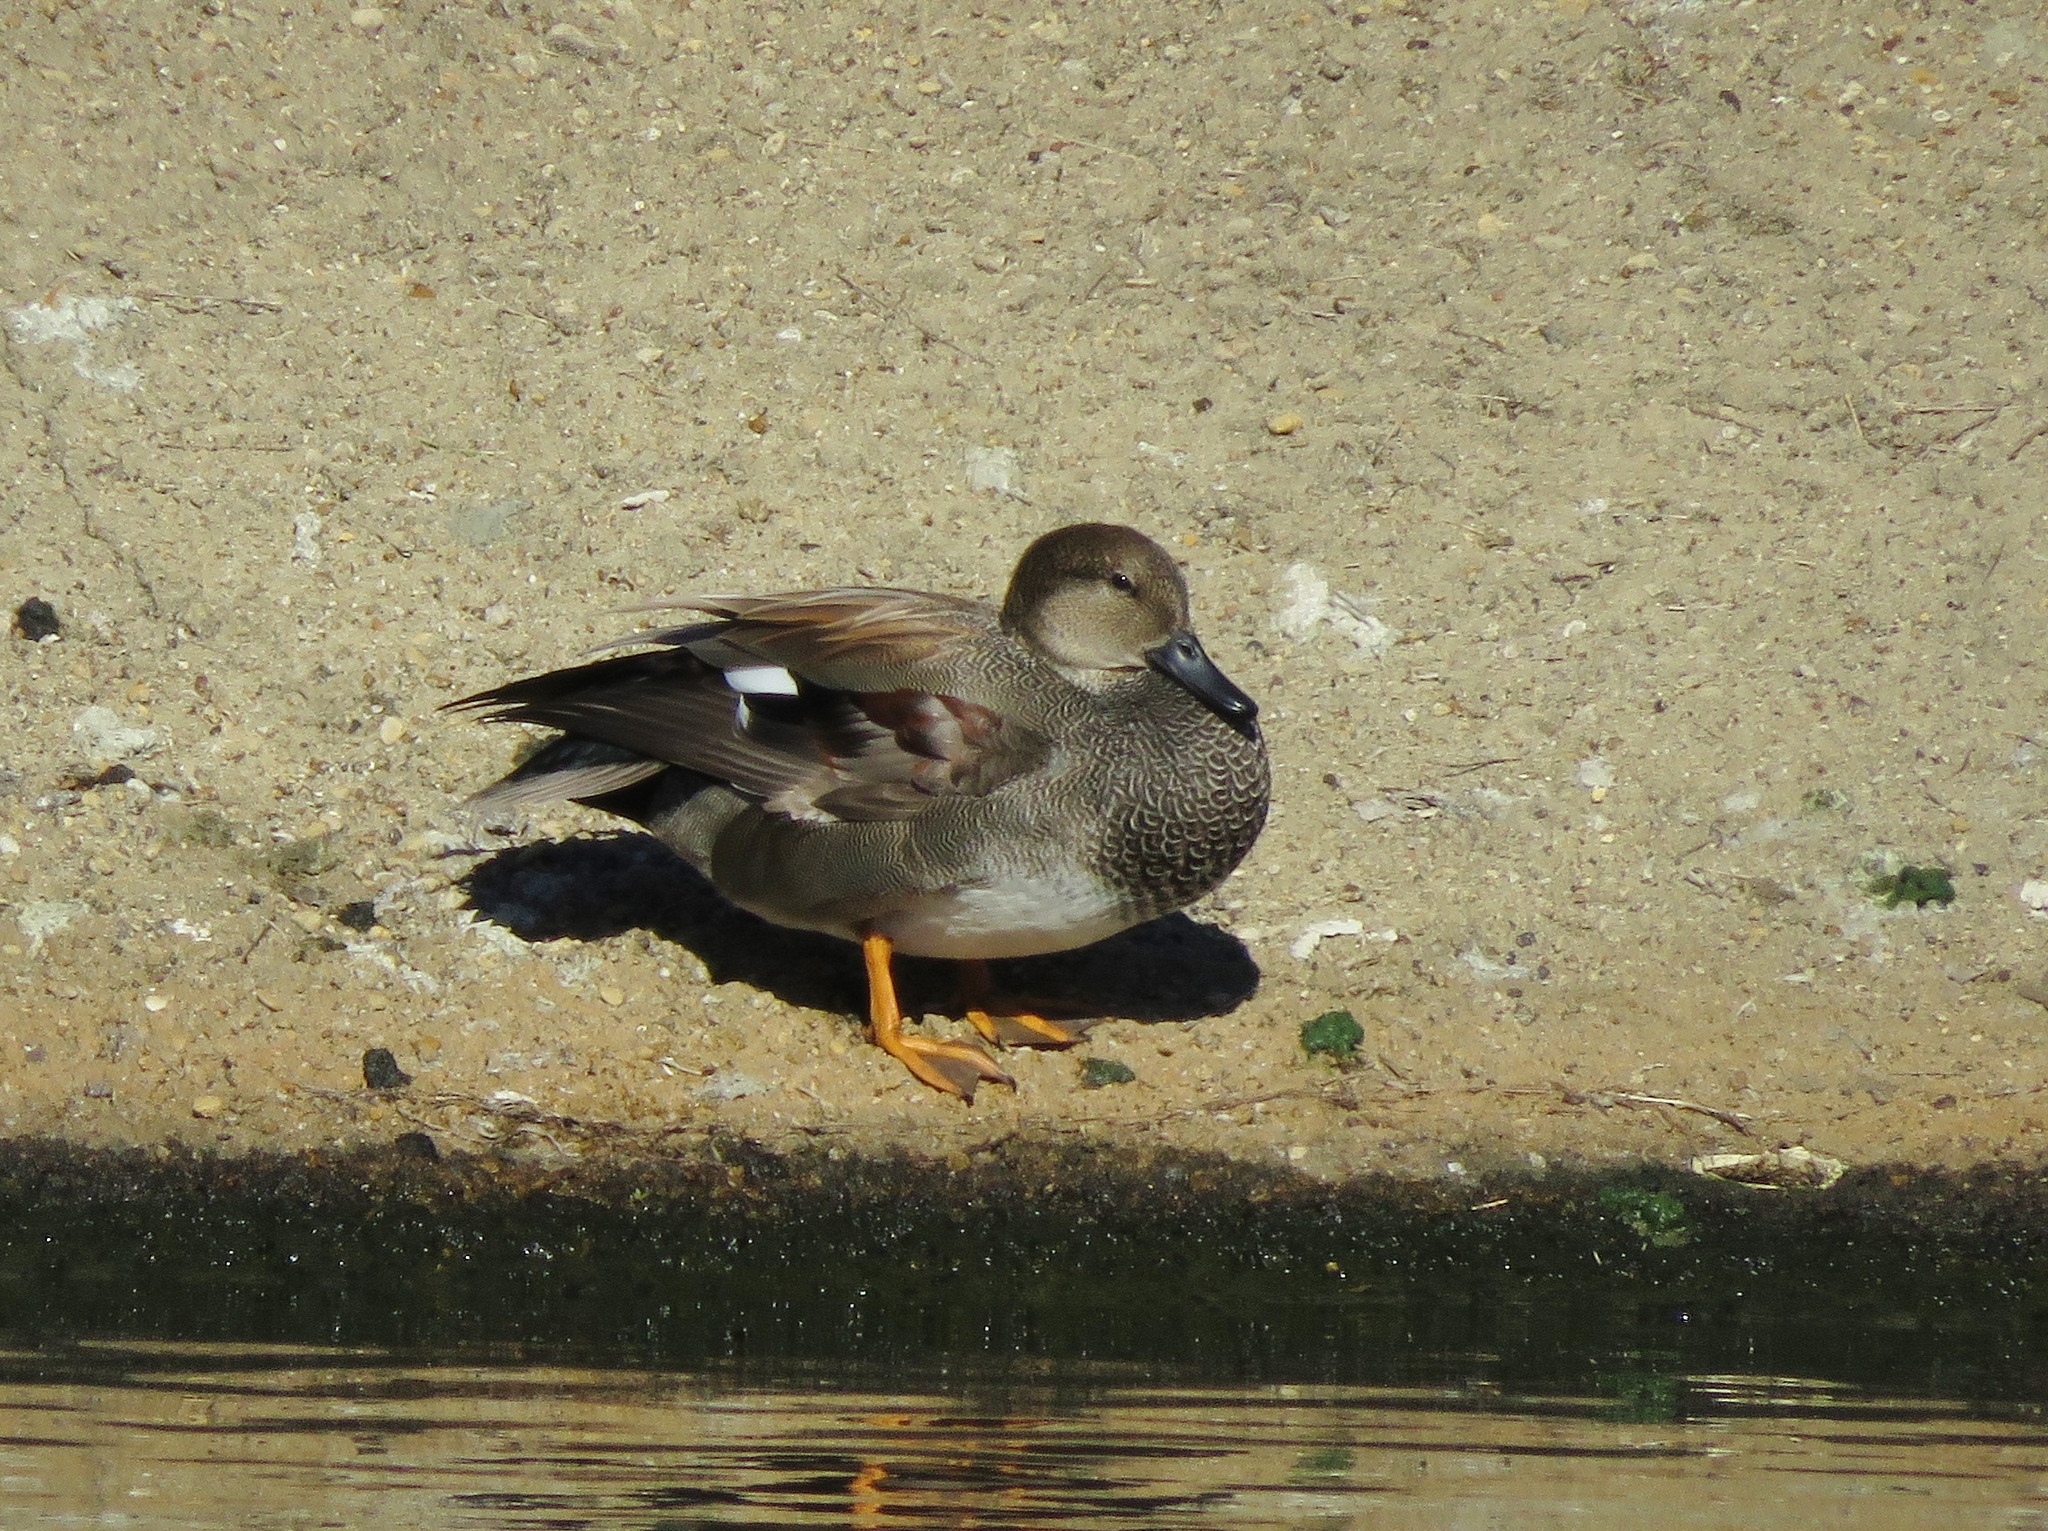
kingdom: Animalia
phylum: Chordata
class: Aves
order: Anseriformes
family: Anatidae
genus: Mareca
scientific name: Mareca strepera
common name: Gadwall
